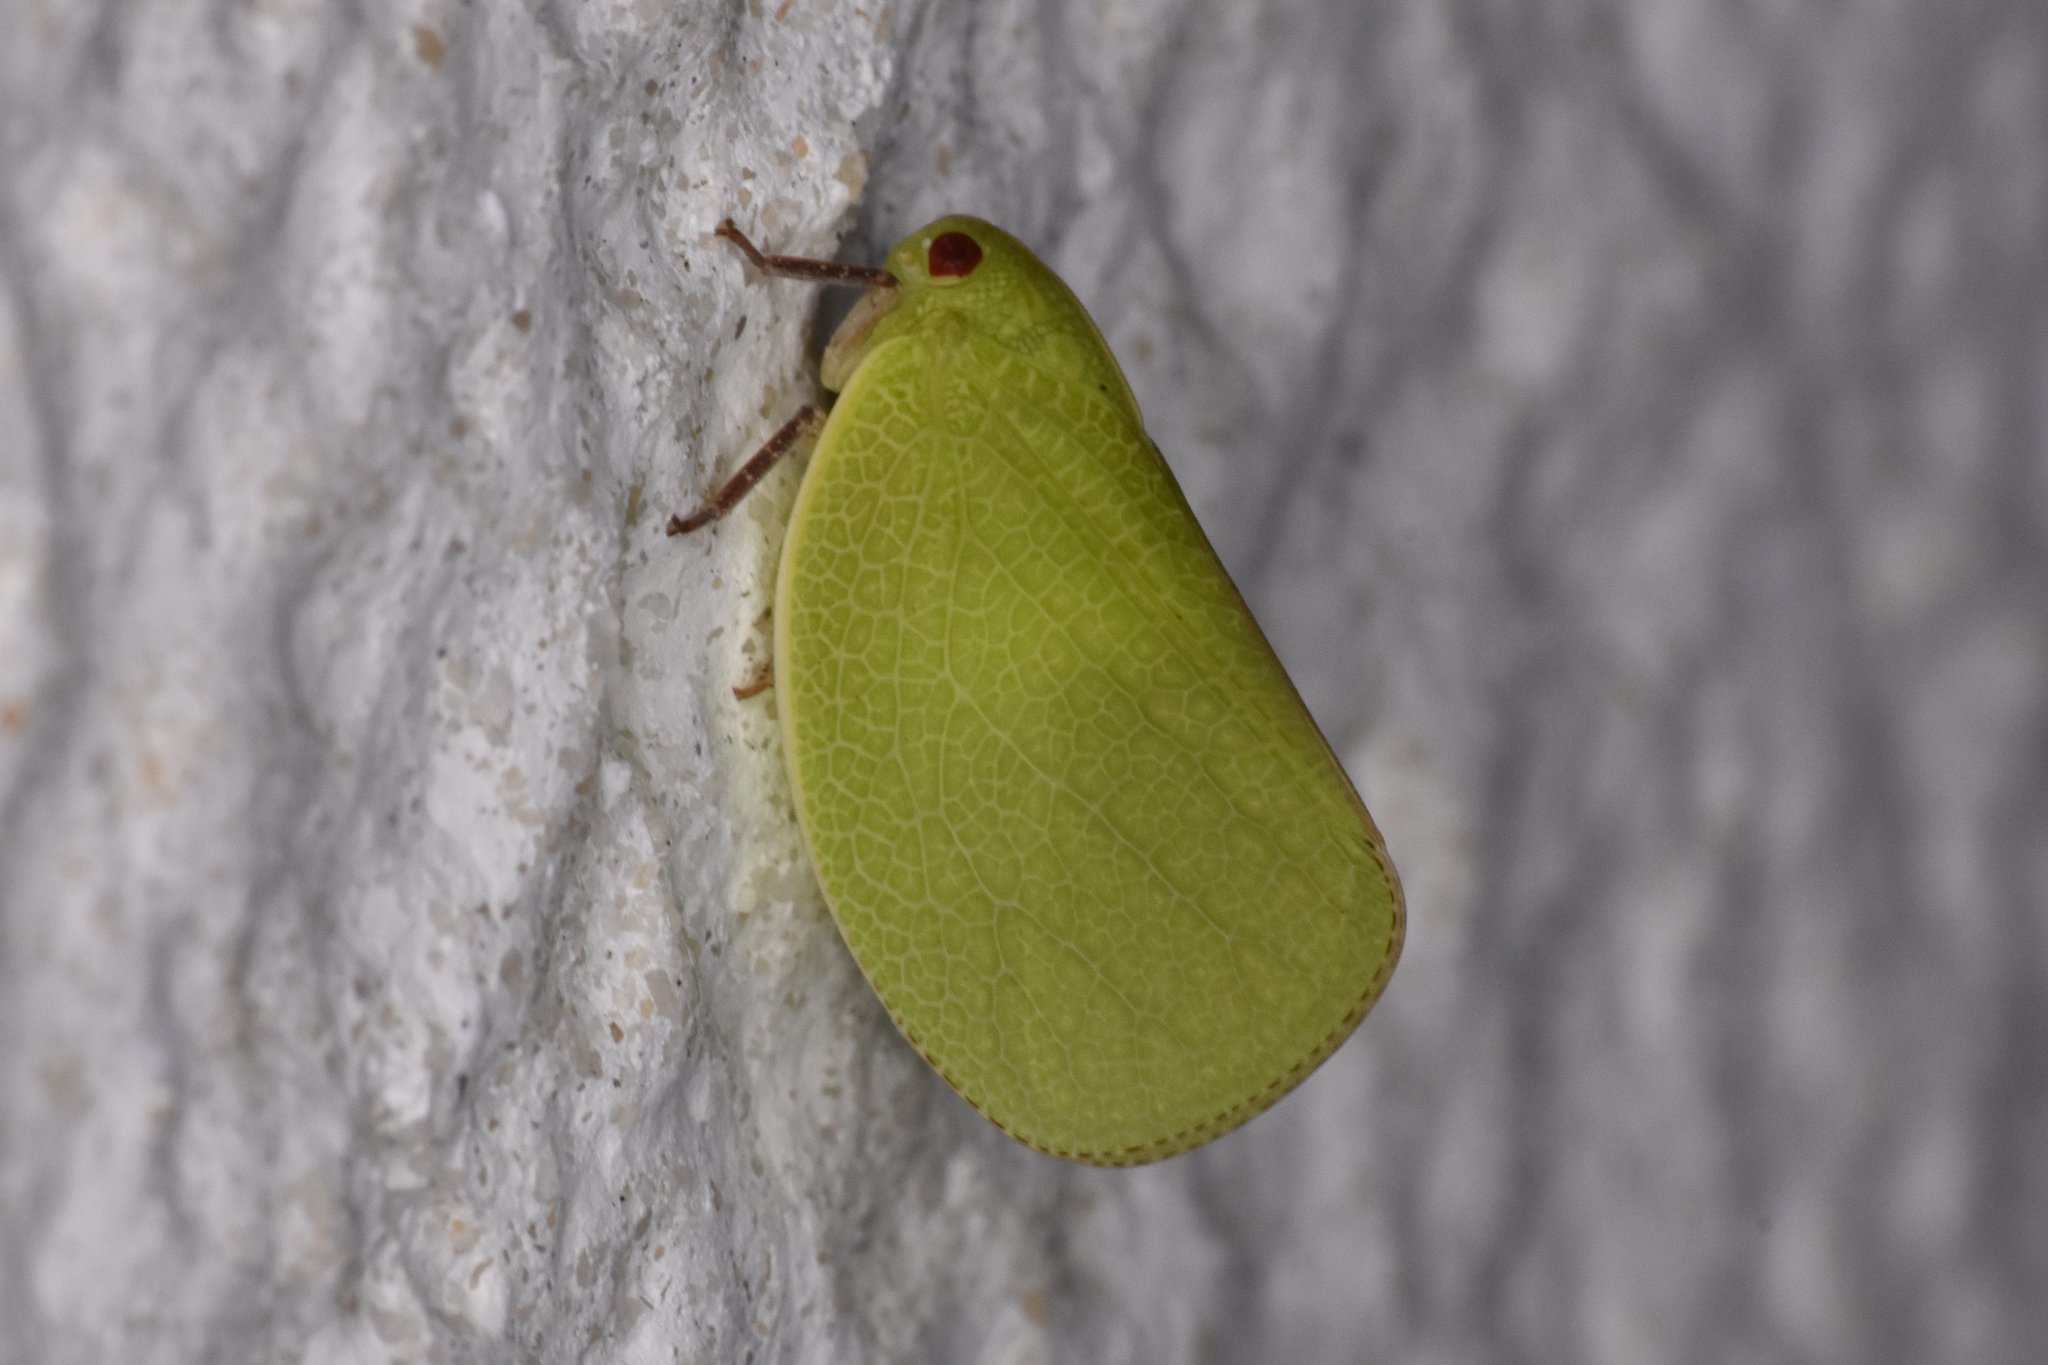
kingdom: Animalia
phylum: Arthropoda
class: Insecta
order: Hemiptera
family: Acanaloniidae
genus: Acanalonia
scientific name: Acanalonia servillei
